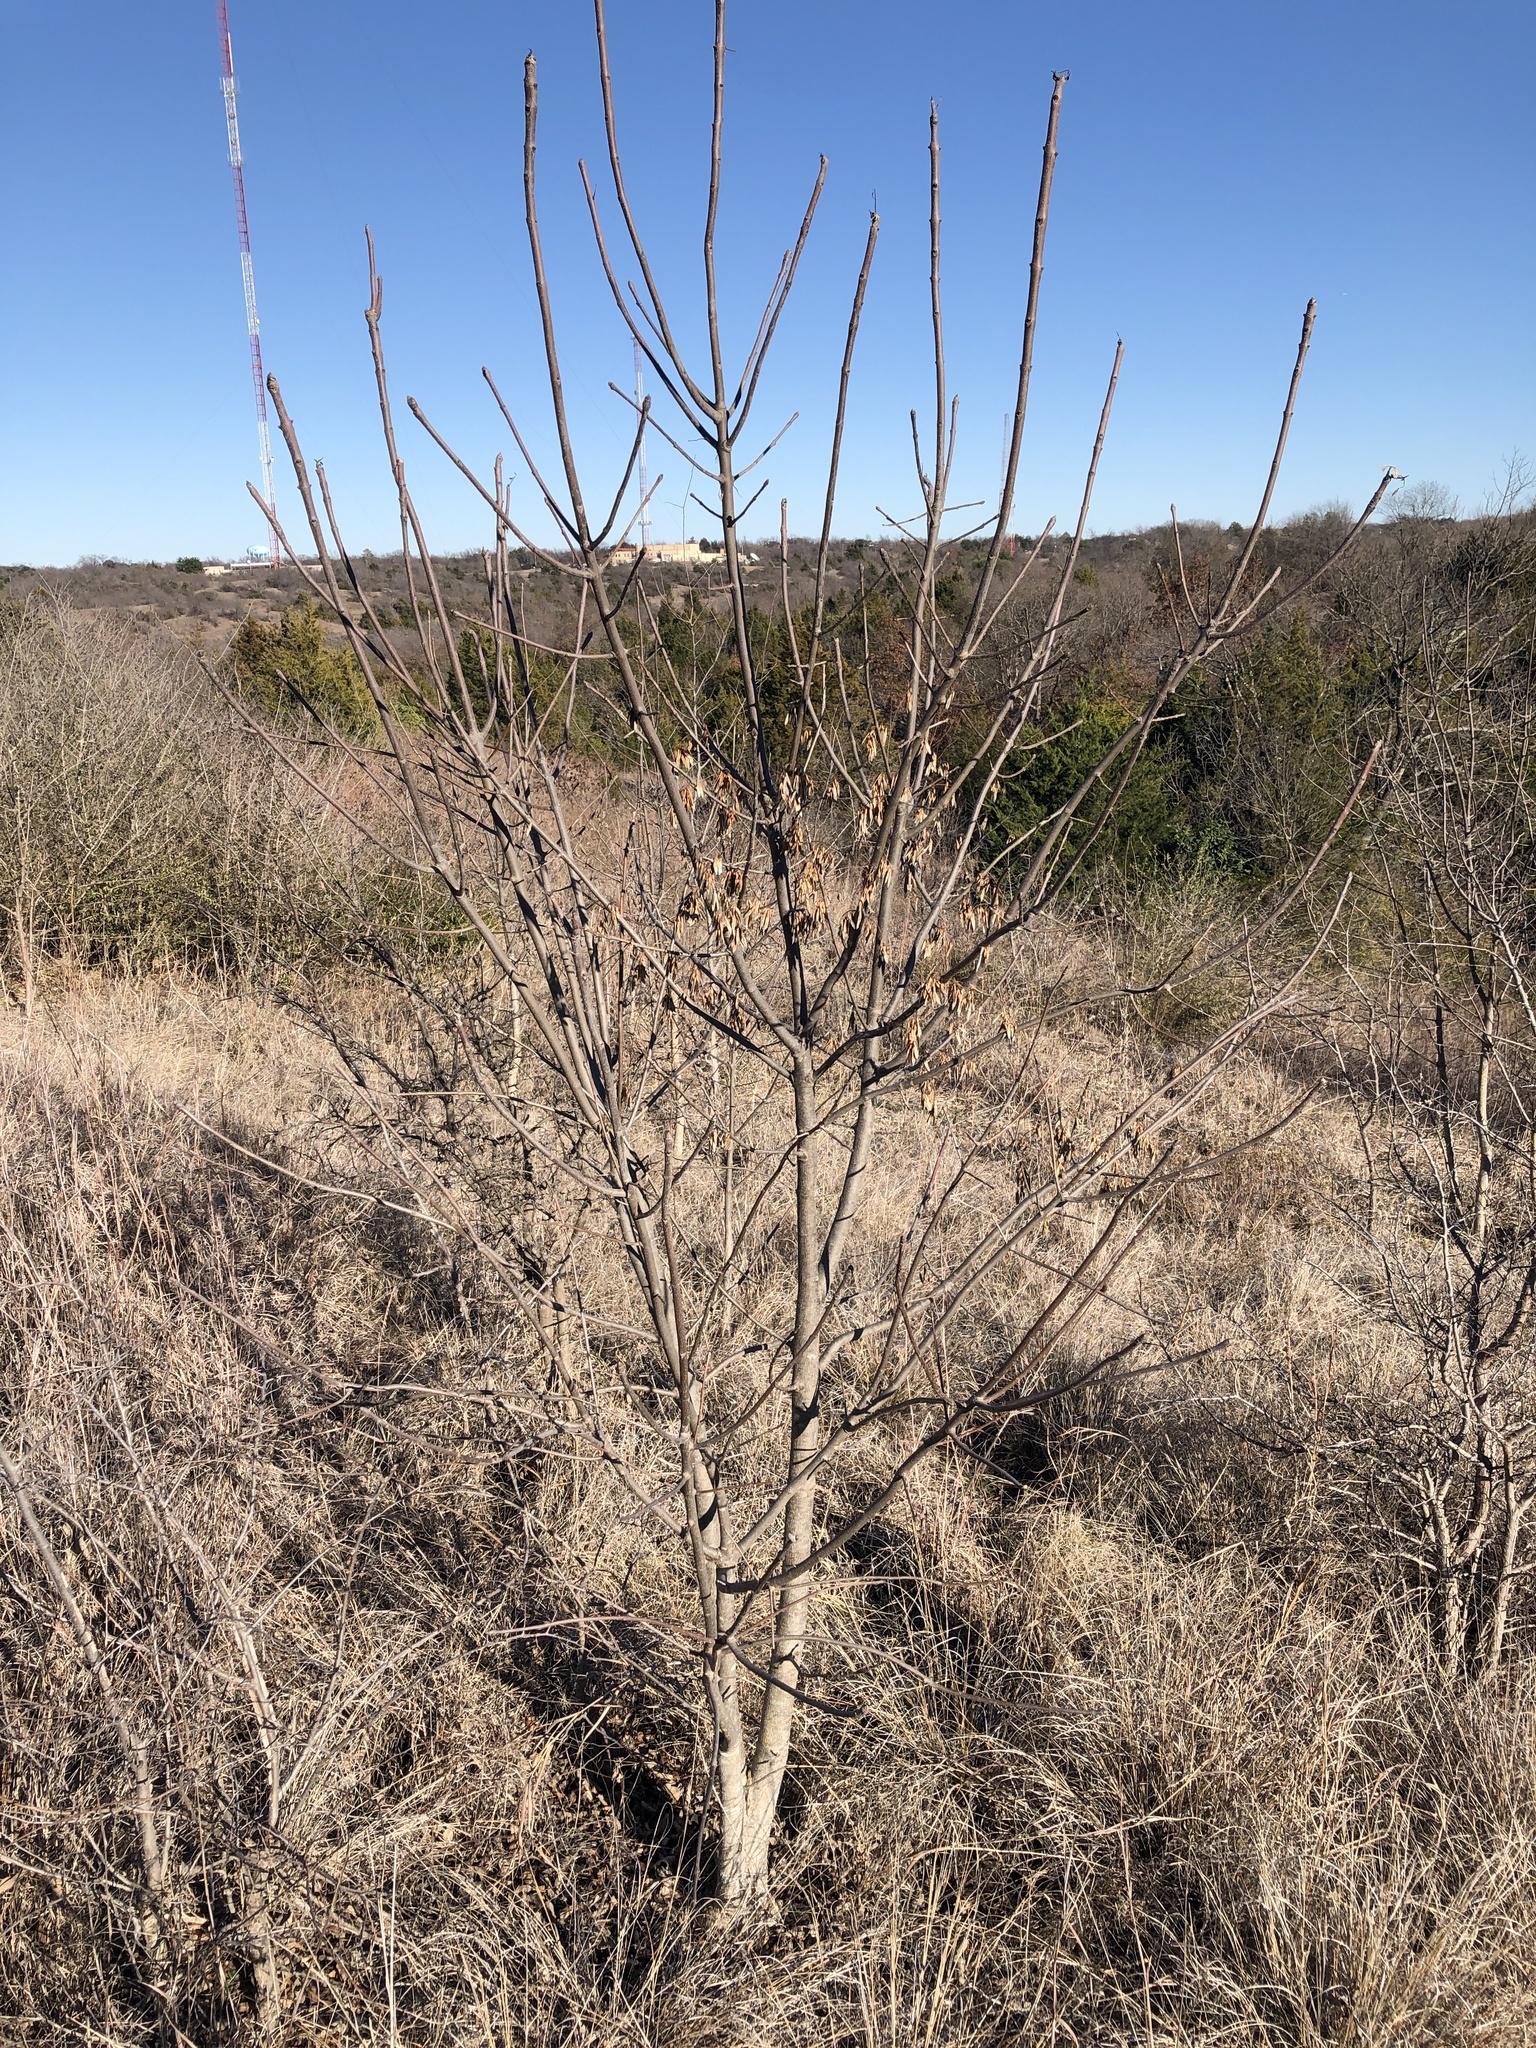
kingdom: Plantae
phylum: Tracheophyta
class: Magnoliopsida
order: Lamiales
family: Oleaceae
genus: Fraxinus
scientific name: Fraxinus albicans
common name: Texas ash
